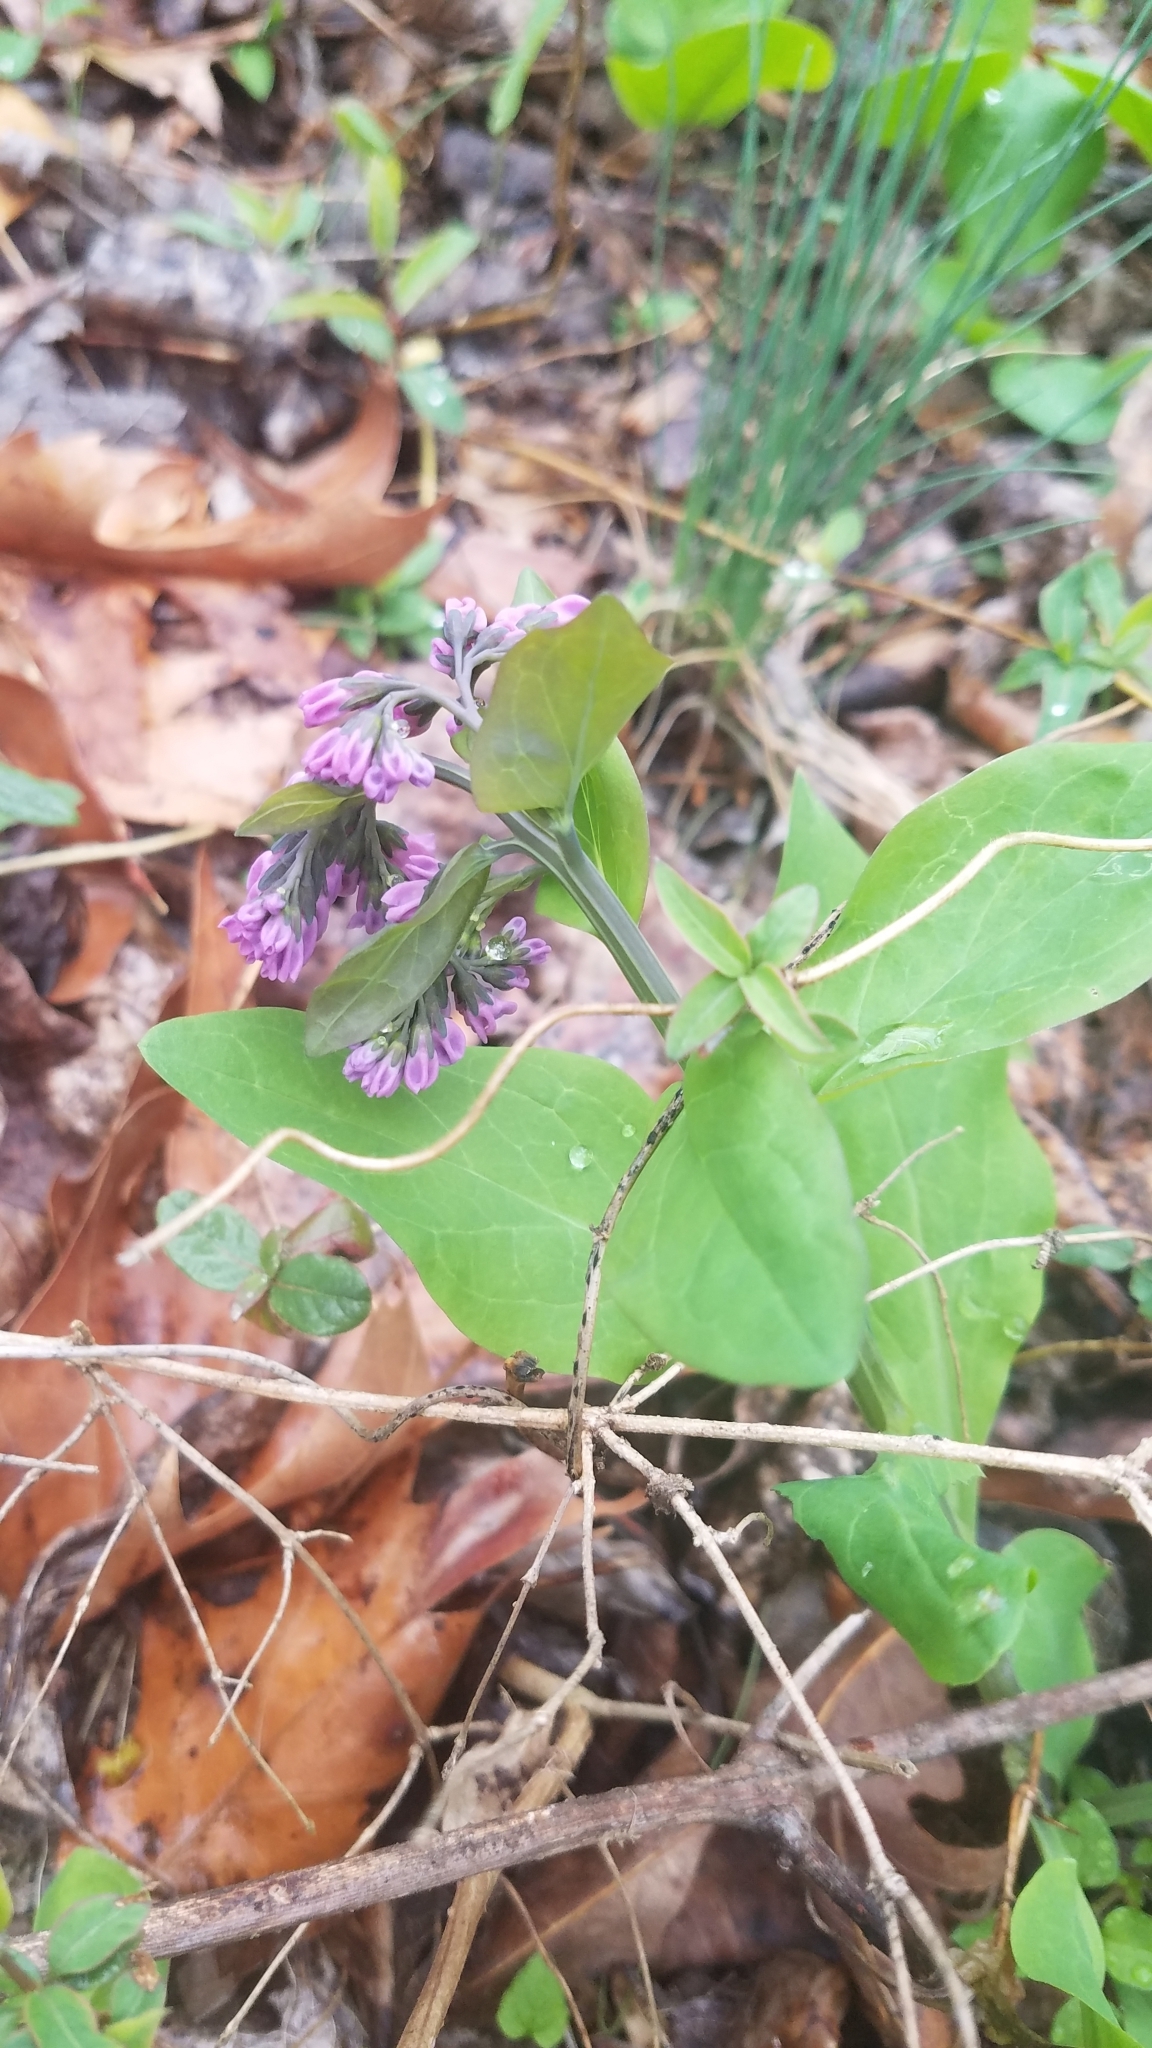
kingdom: Plantae
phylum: Tracheophyta
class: Magnoliopsida
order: Boraginales
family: Boraginaceae
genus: Mertensia
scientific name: Mertensia virginica
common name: Virginia bluebells
